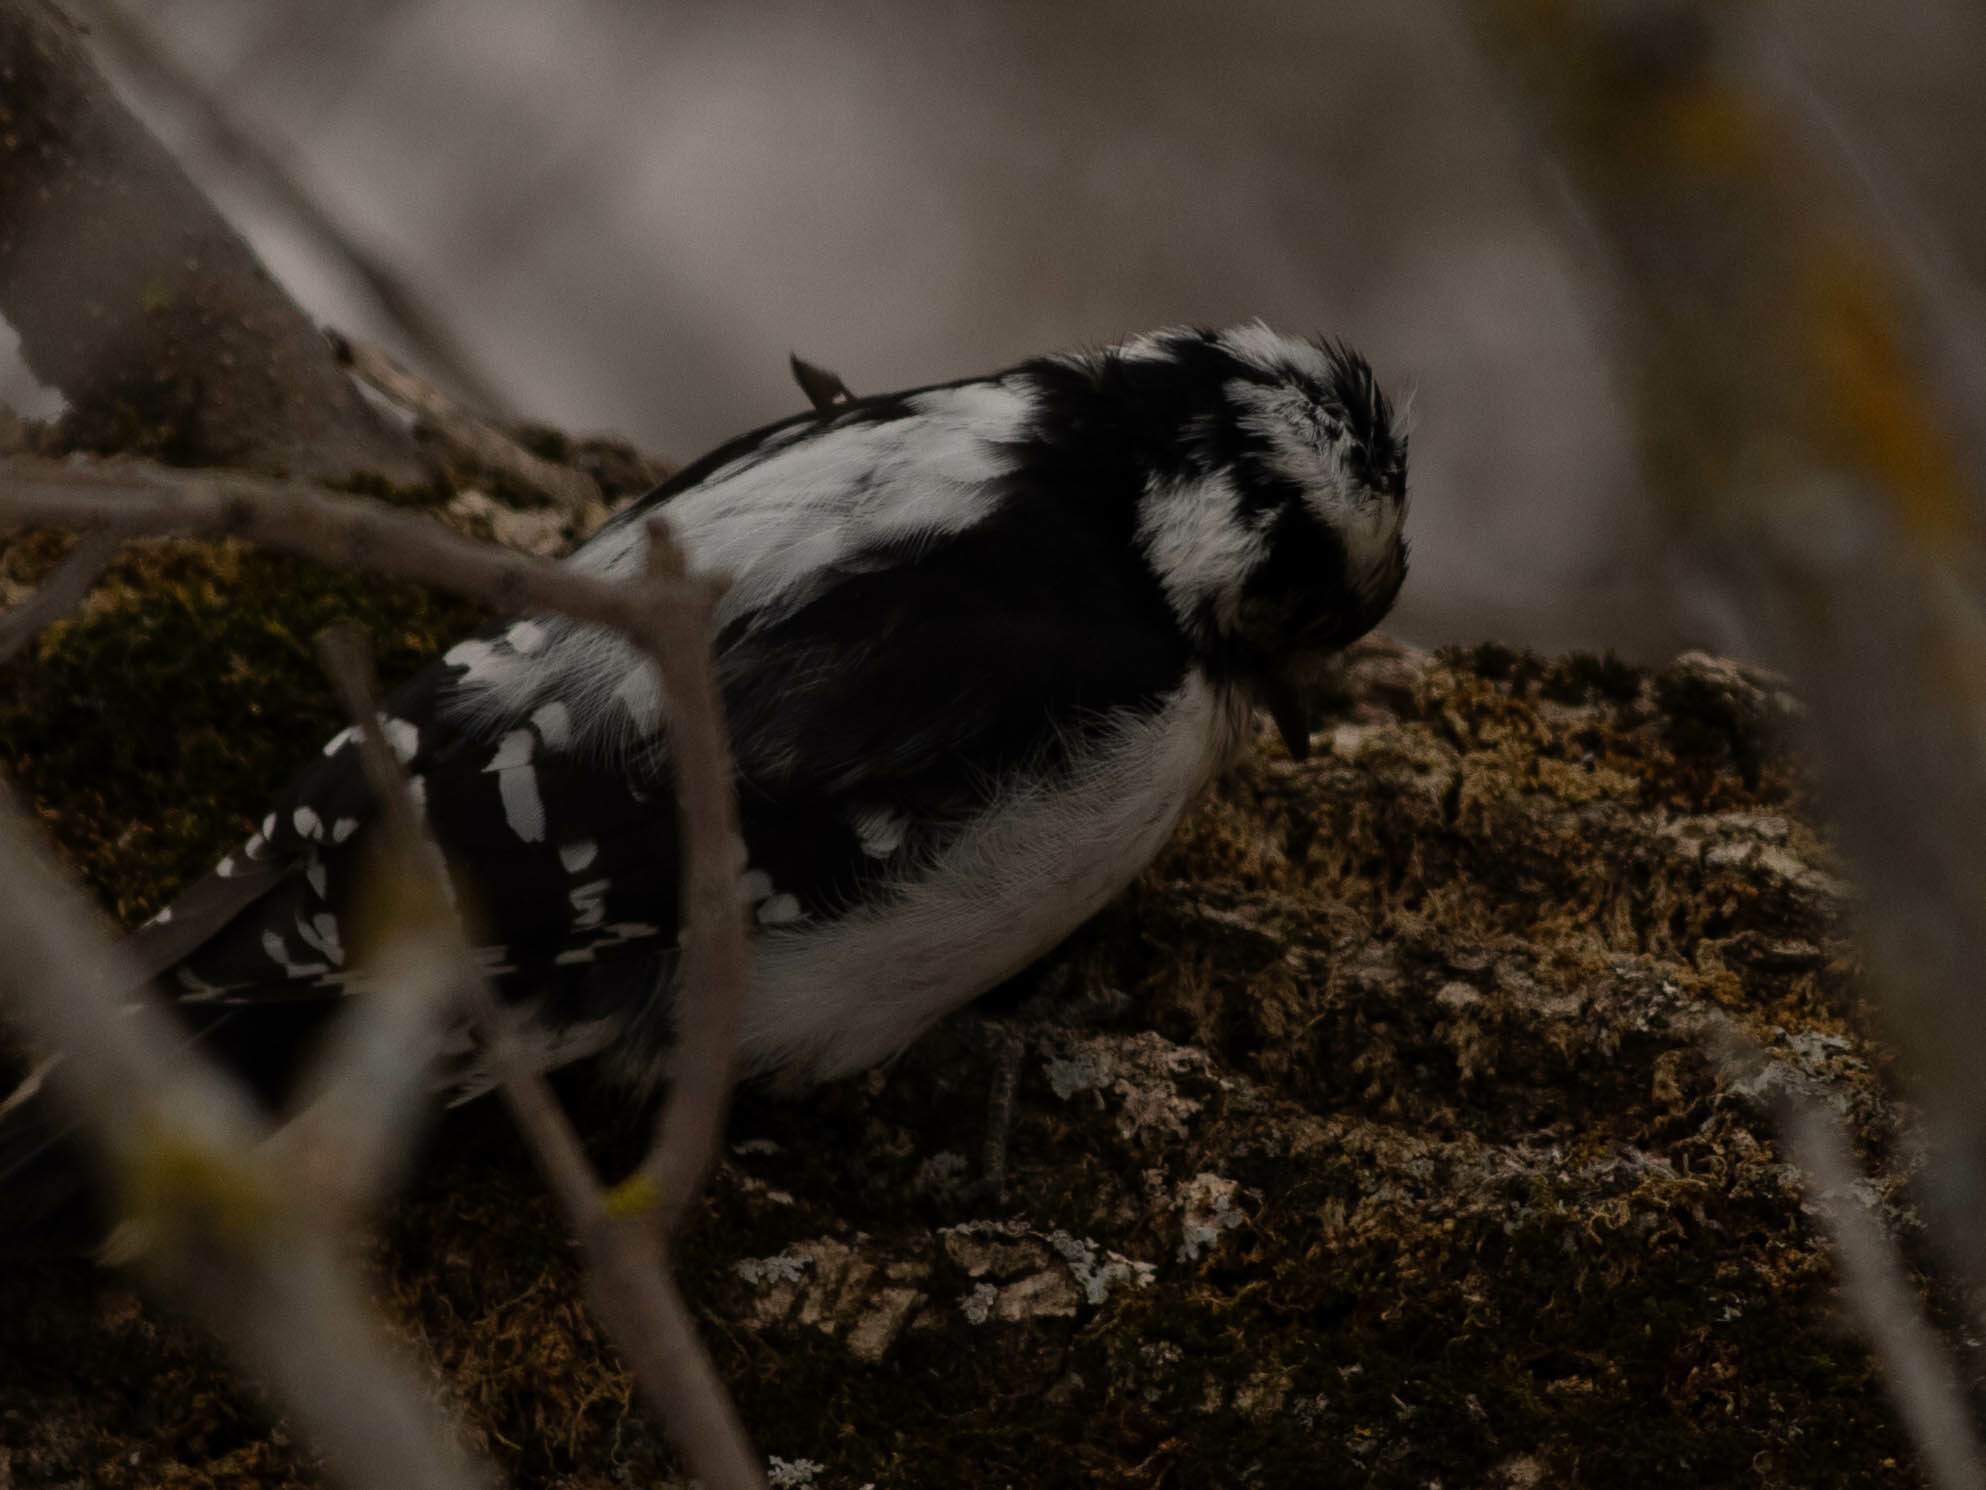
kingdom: Animalia
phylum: Chordata
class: Aves
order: Piciformes
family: Picidae
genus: Dryobates
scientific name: Dryobates pubescens
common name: Downy woodpecker
